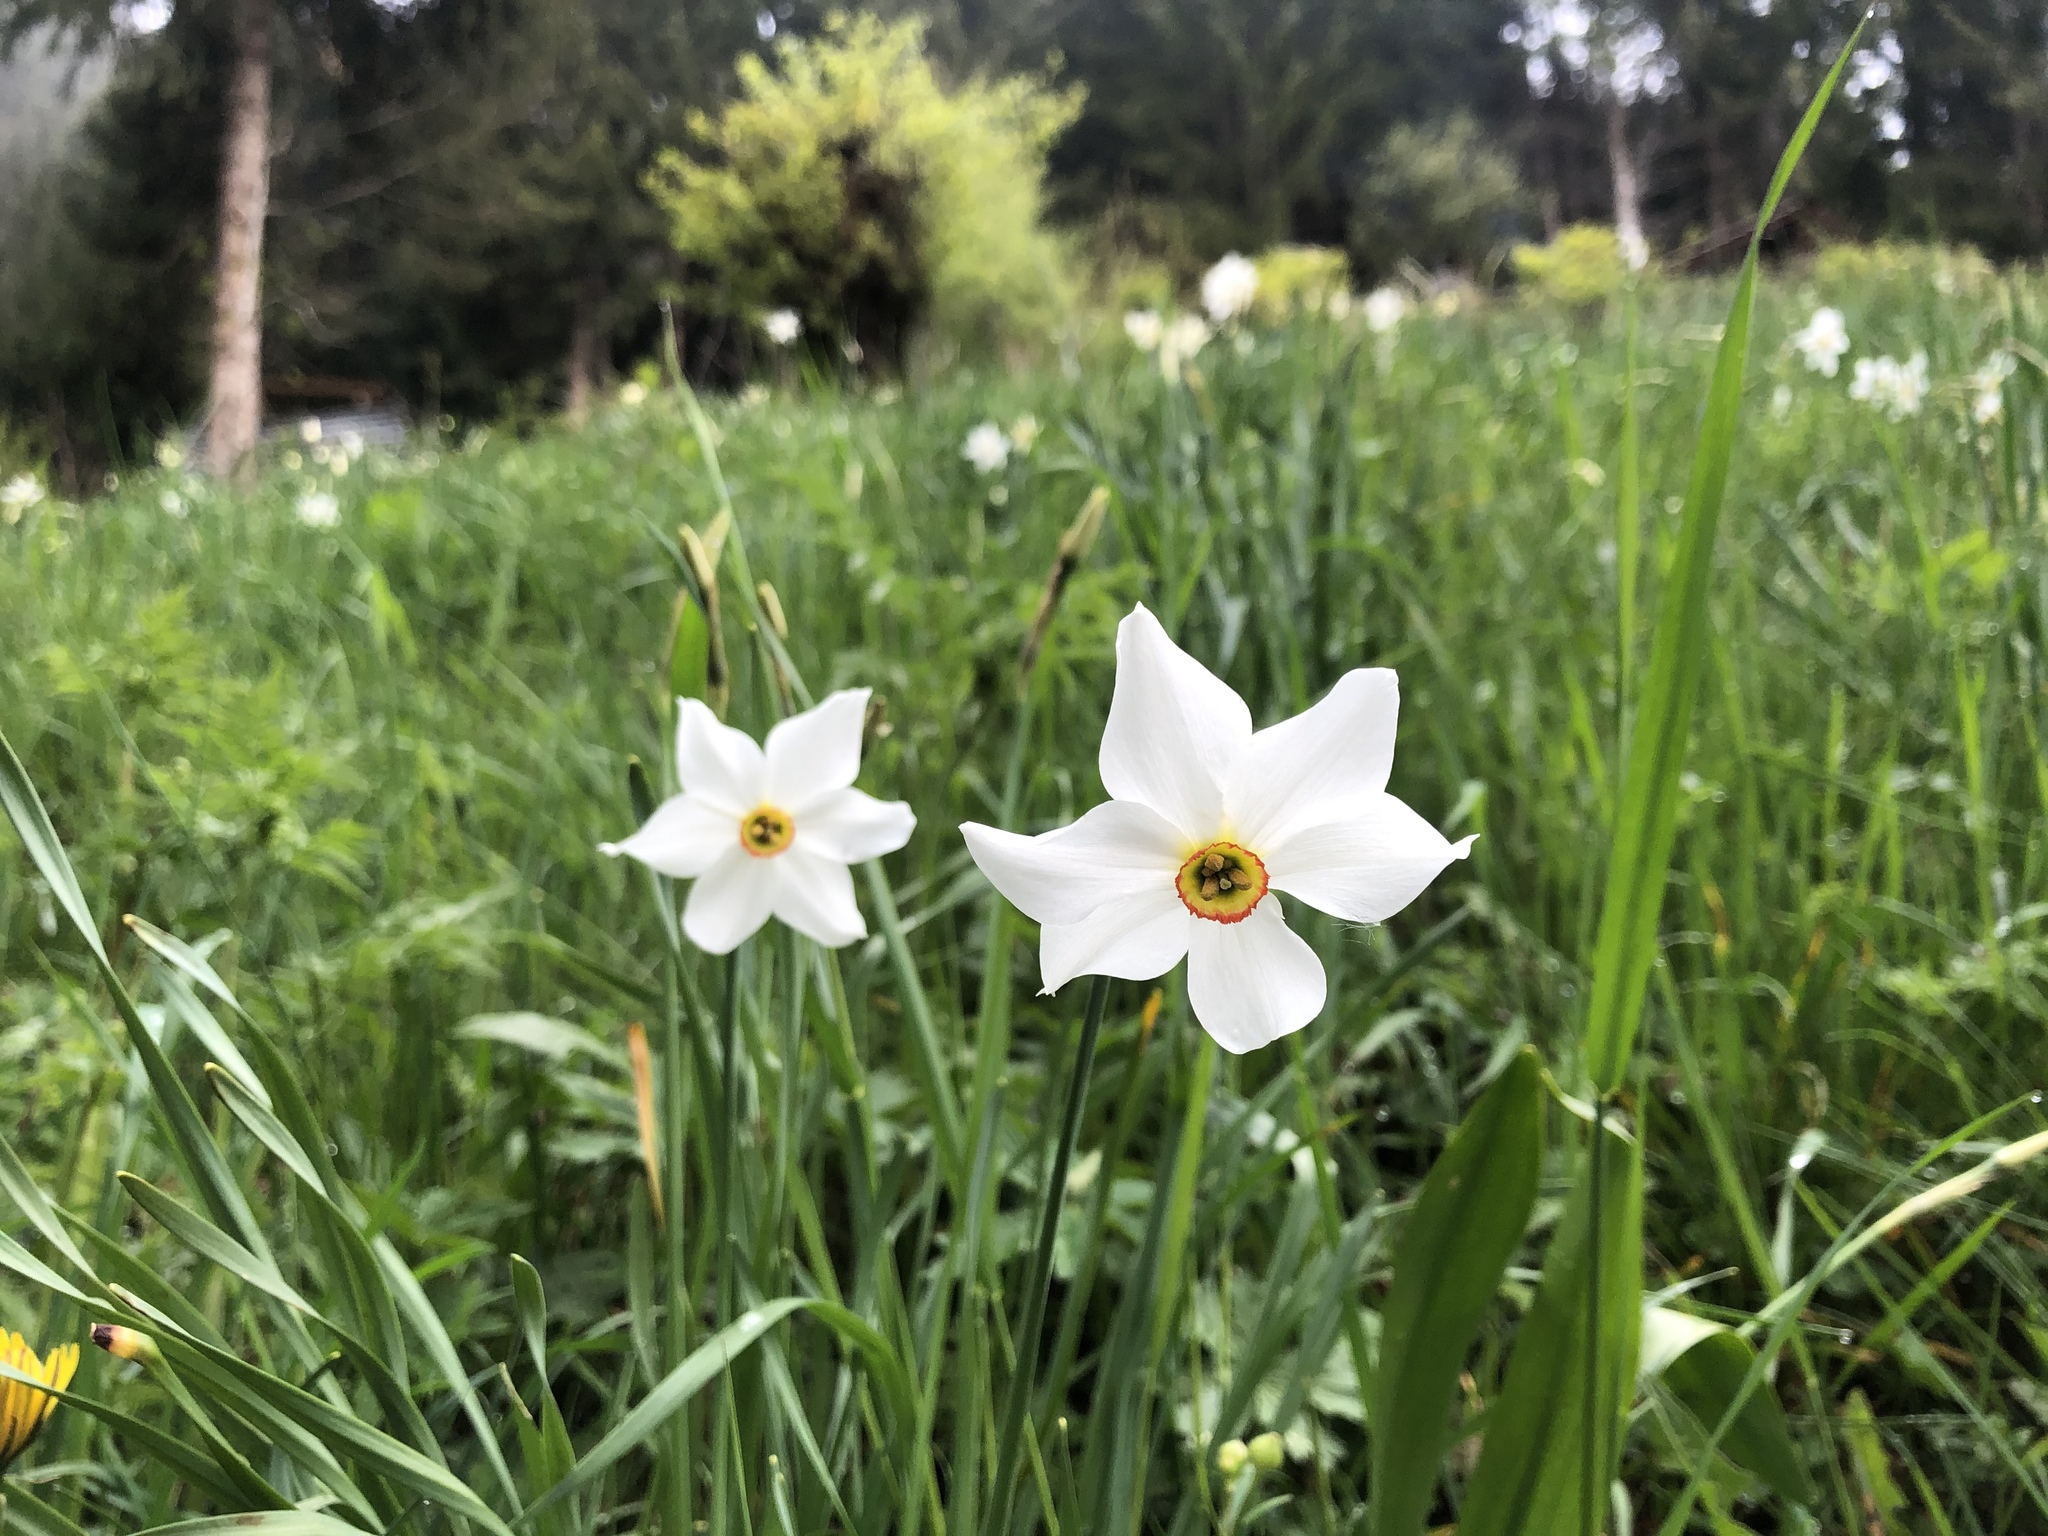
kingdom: Plantae
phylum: Tracheophyta
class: Liliopsida
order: Asparagales
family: Amaryllidaceae
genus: Narcissus
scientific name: Narcissus poeticus
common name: Pheasant's-eye daffodil
